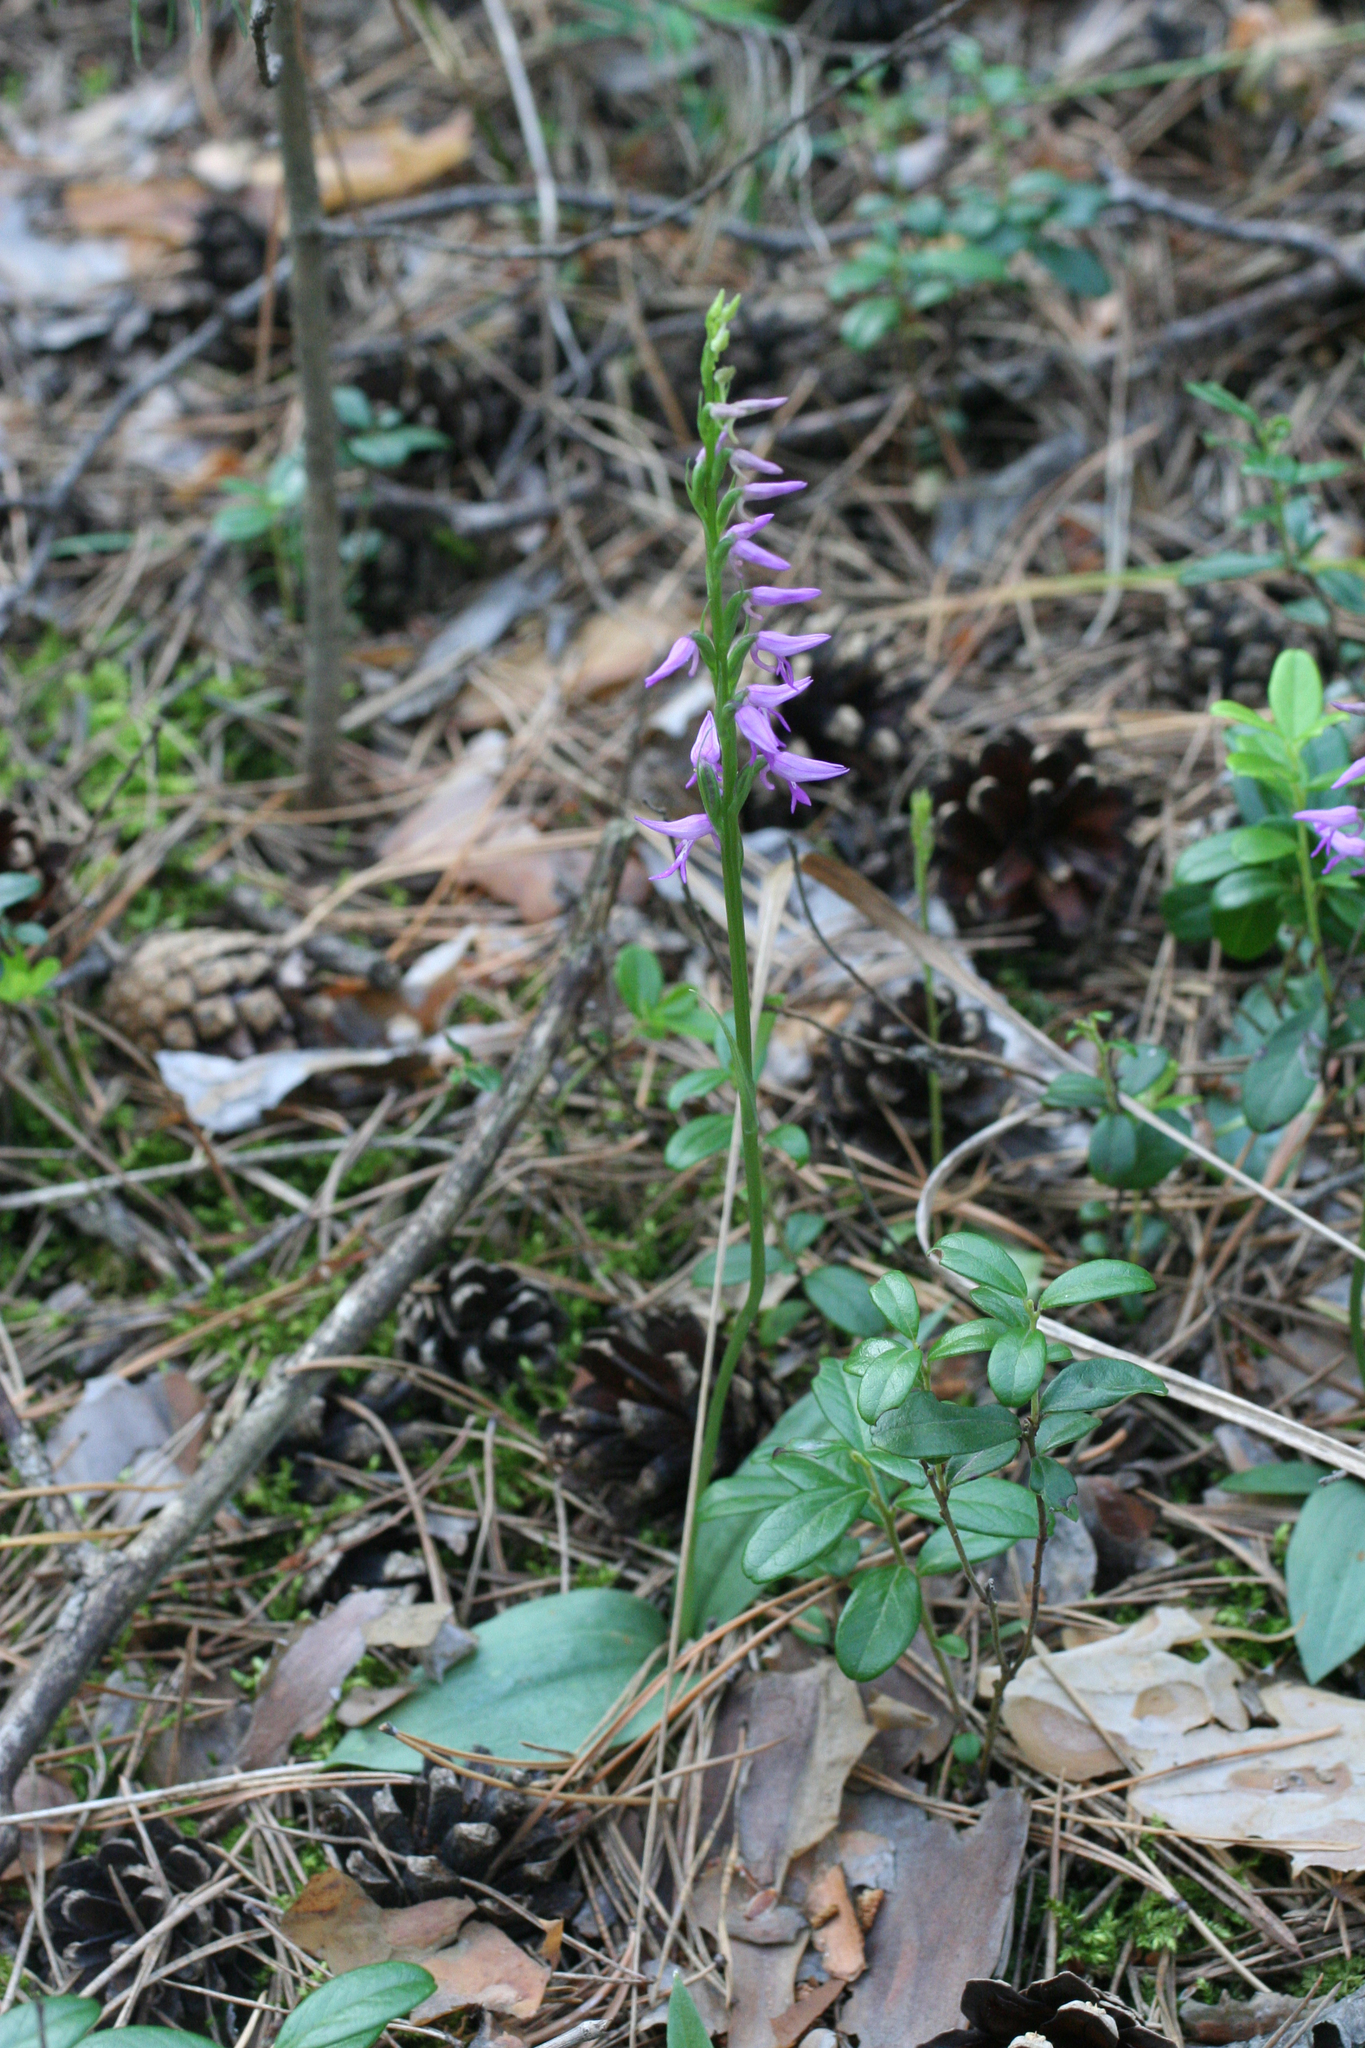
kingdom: Plantae
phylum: Tracheophyta
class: Liliopsida
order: Asparagales
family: Orchidaceae
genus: Hemipilia
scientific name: Hemipilia cucullata
